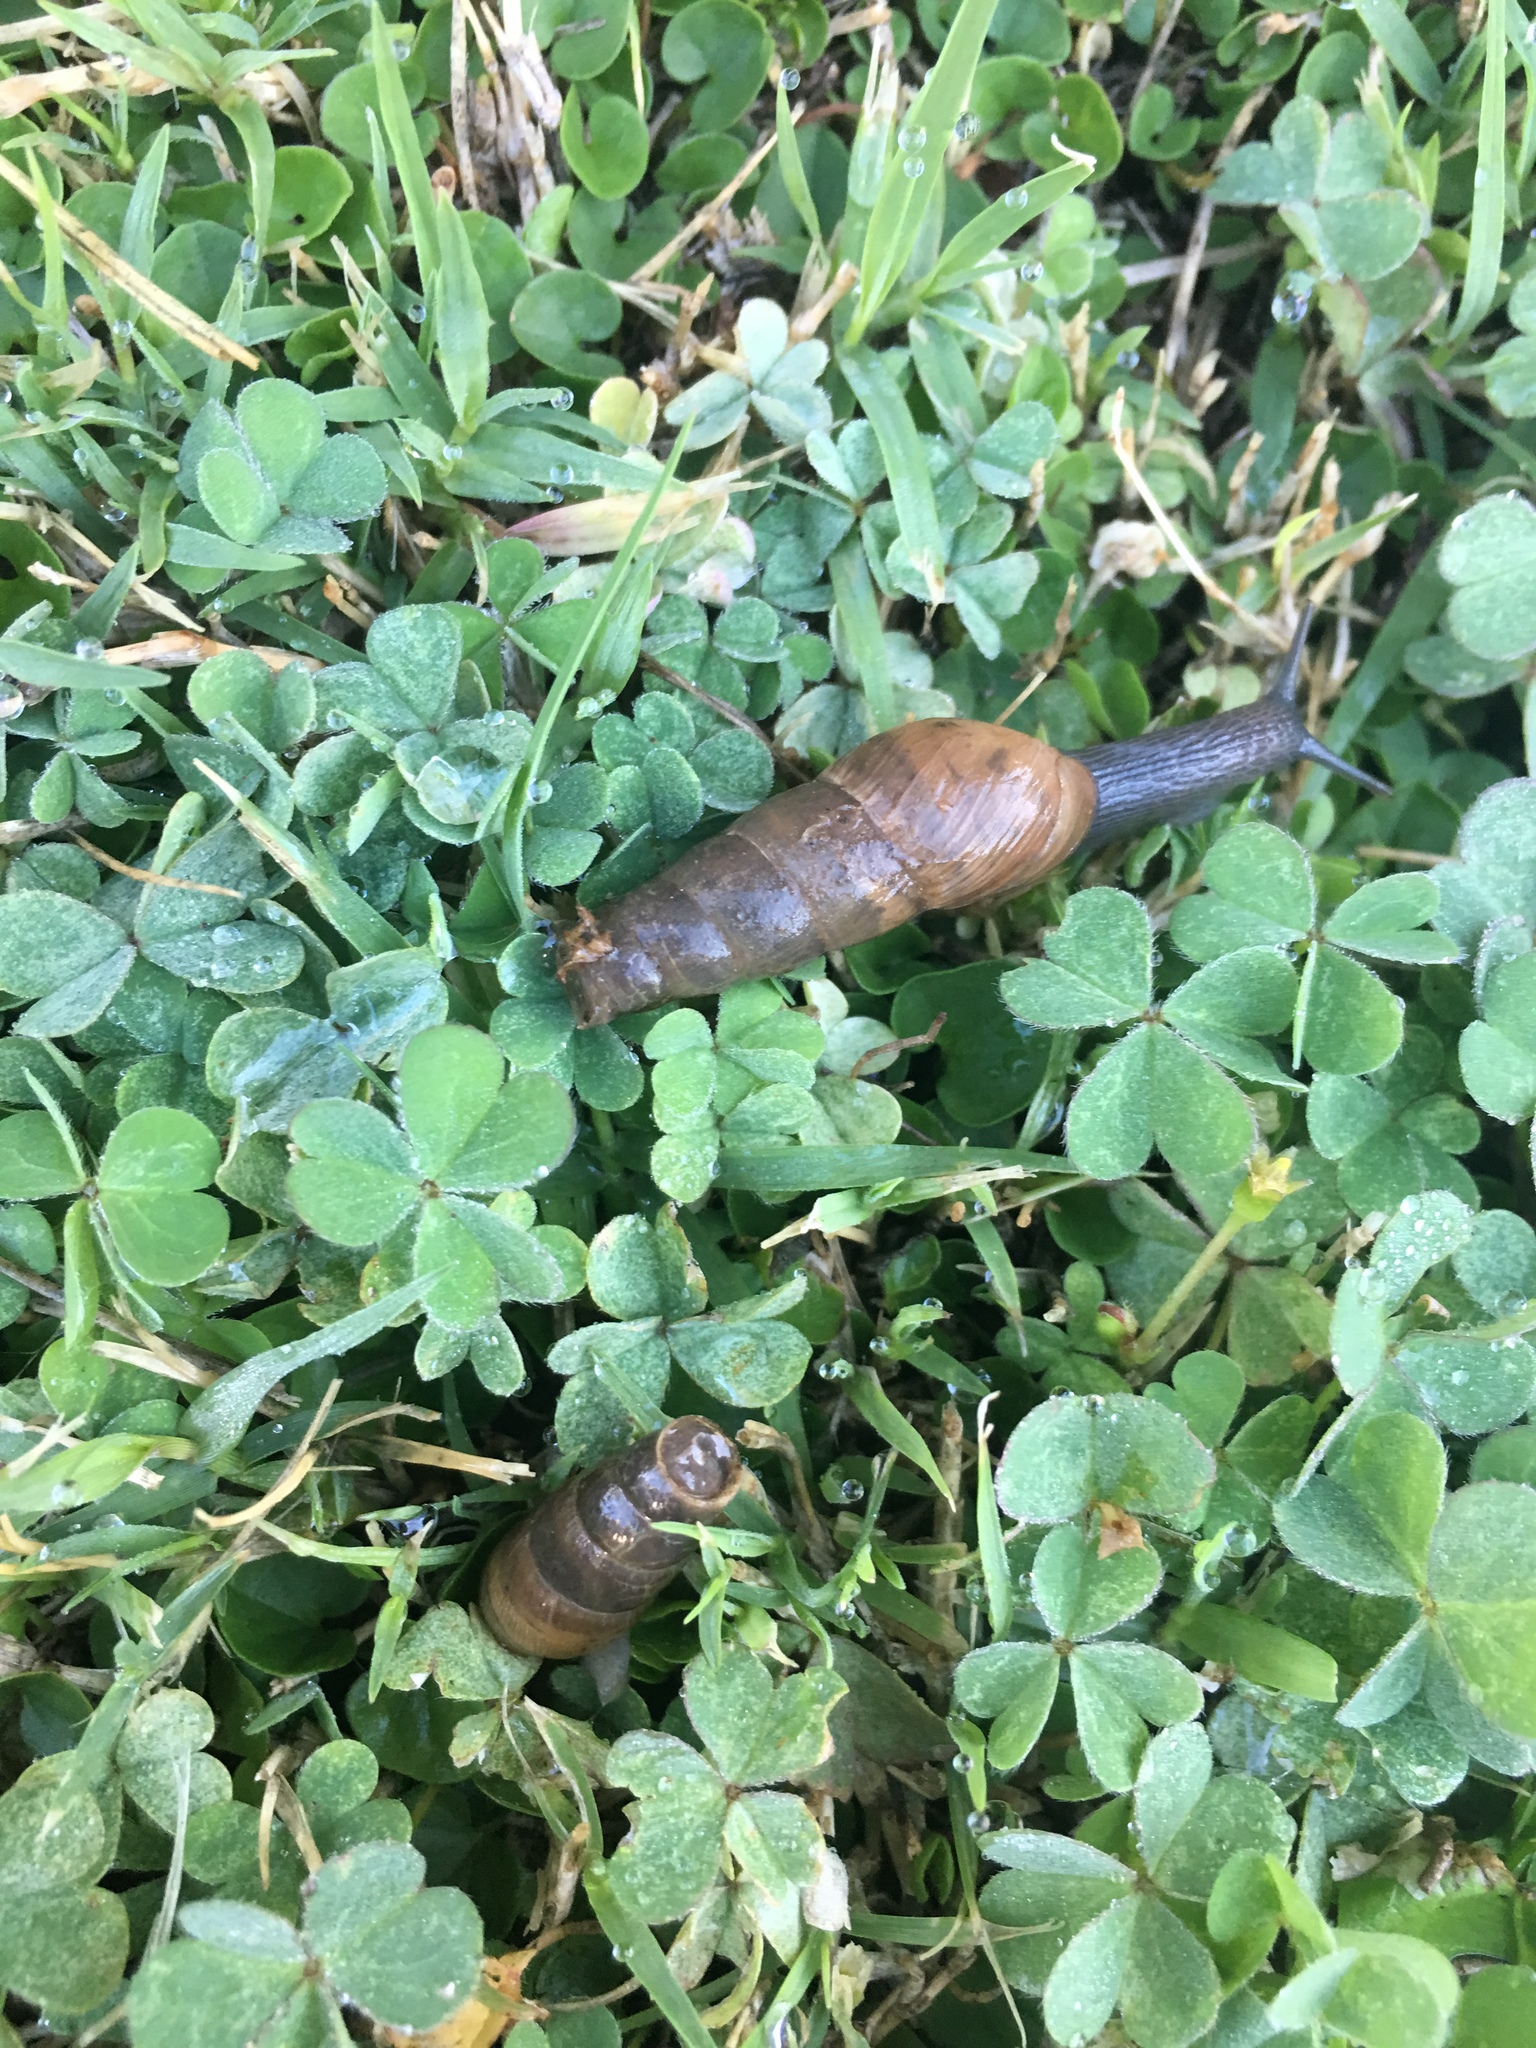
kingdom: Animalia
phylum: Mollusca
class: Gastropoda
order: Stylommatophora
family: Achatinidae
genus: Rumina
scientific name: Rumina decollata
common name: Decollate snail
